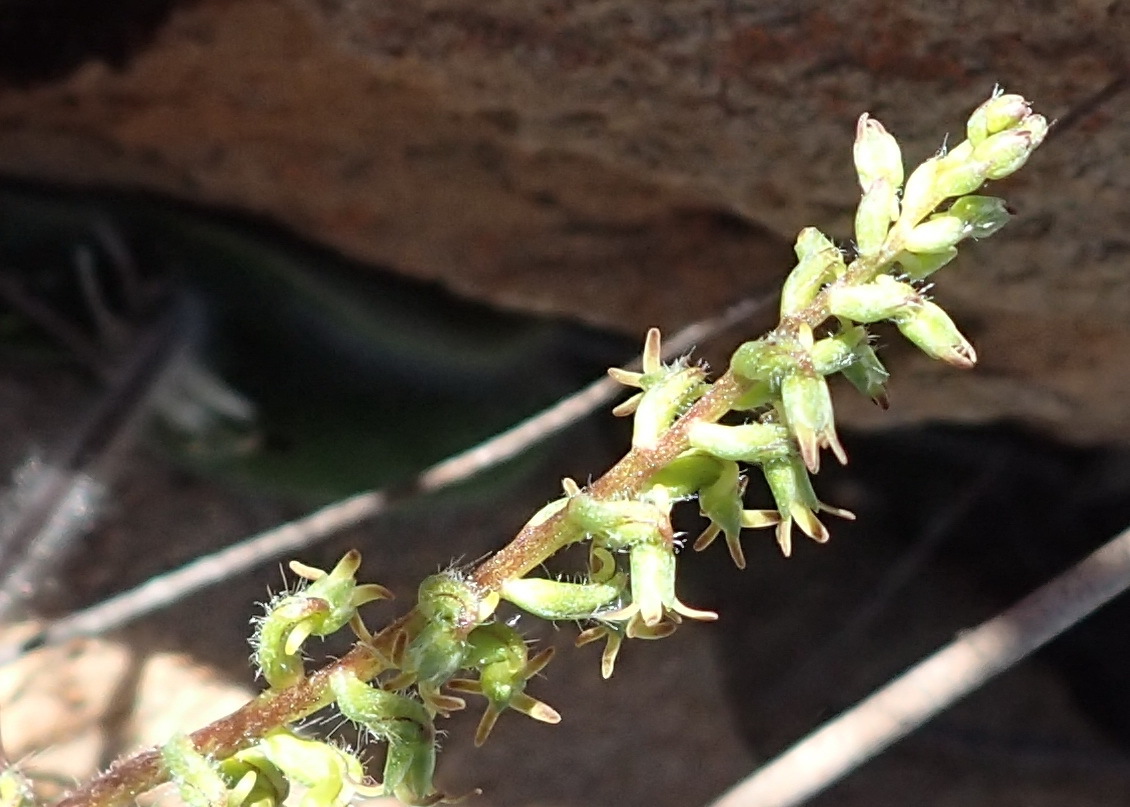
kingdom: Plantae
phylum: Tracheophyta
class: Liliopsida
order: Asparagales
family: Orchidaceae
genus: Holothrix
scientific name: Holothrix villosa
